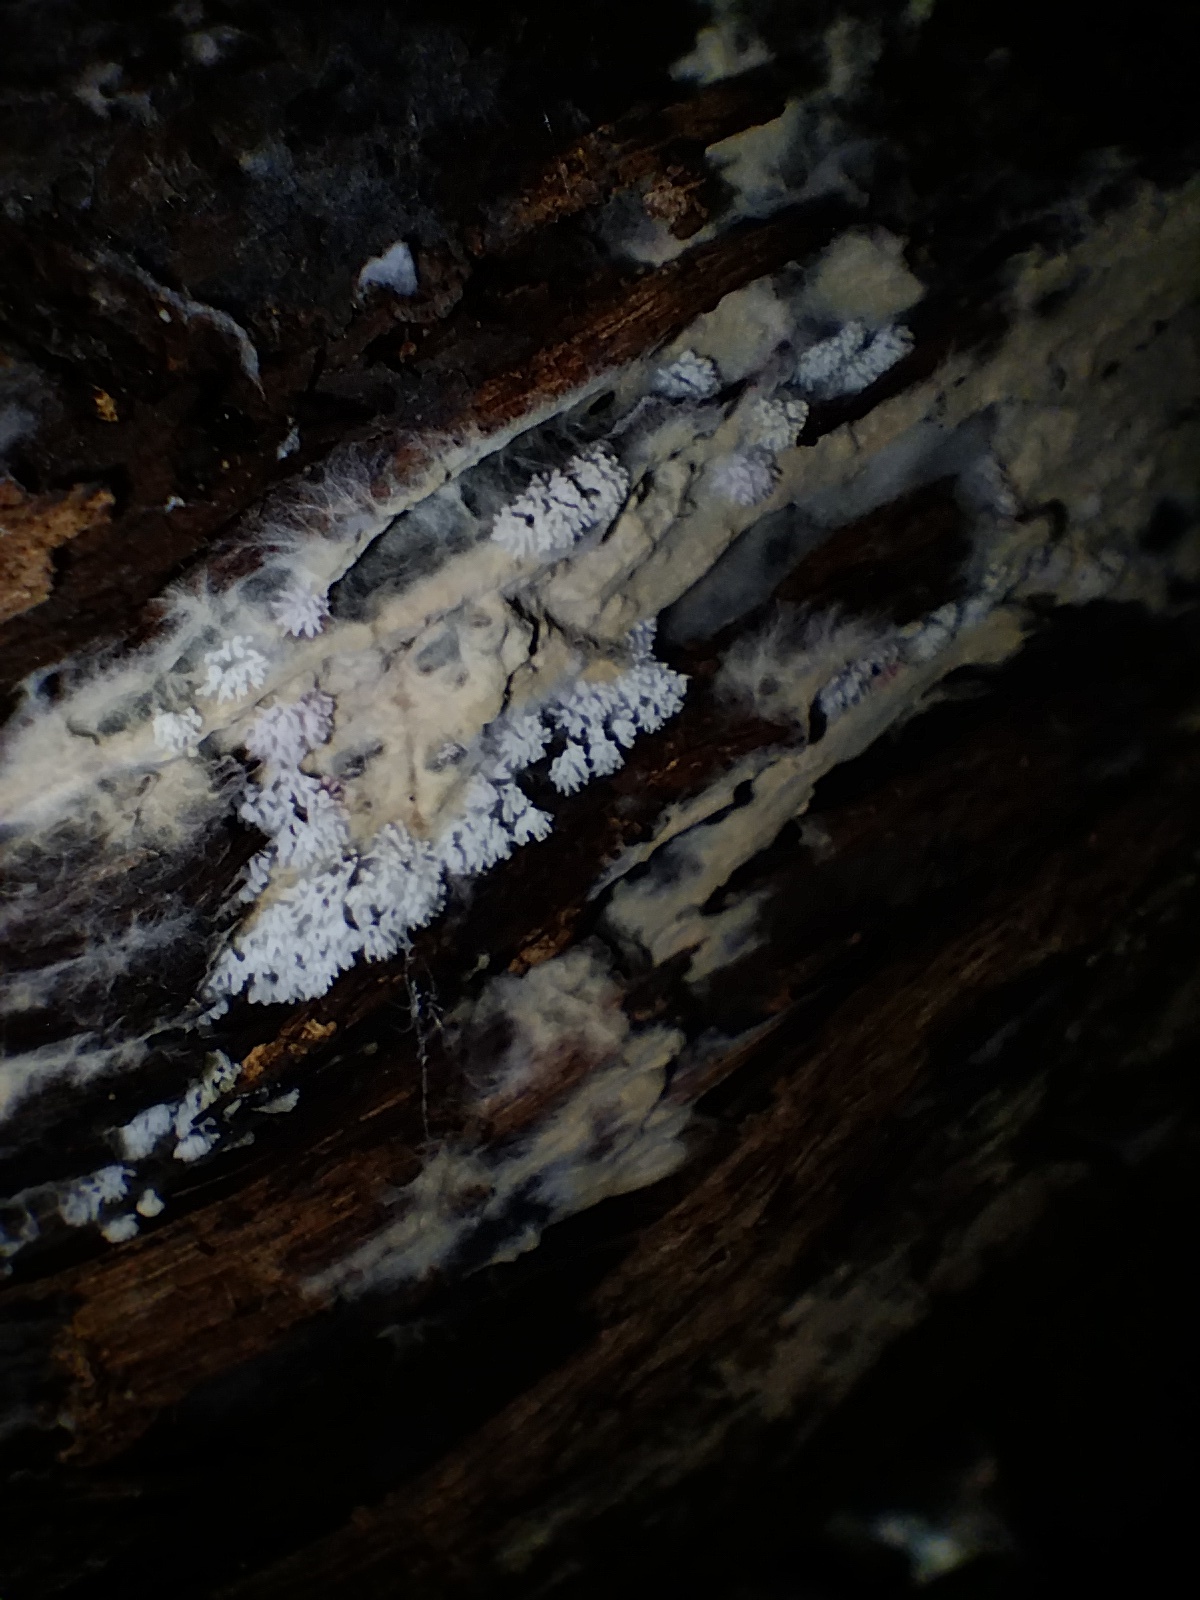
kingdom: Protozoa
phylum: Mycetozoa
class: Protosteliomycetes
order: Ceratiomyxales
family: Ceratiomyxaceae
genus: Ceratiomyxa
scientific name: Ceratiomyxa fruticulosa
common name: Honeycomb coral slime mold
